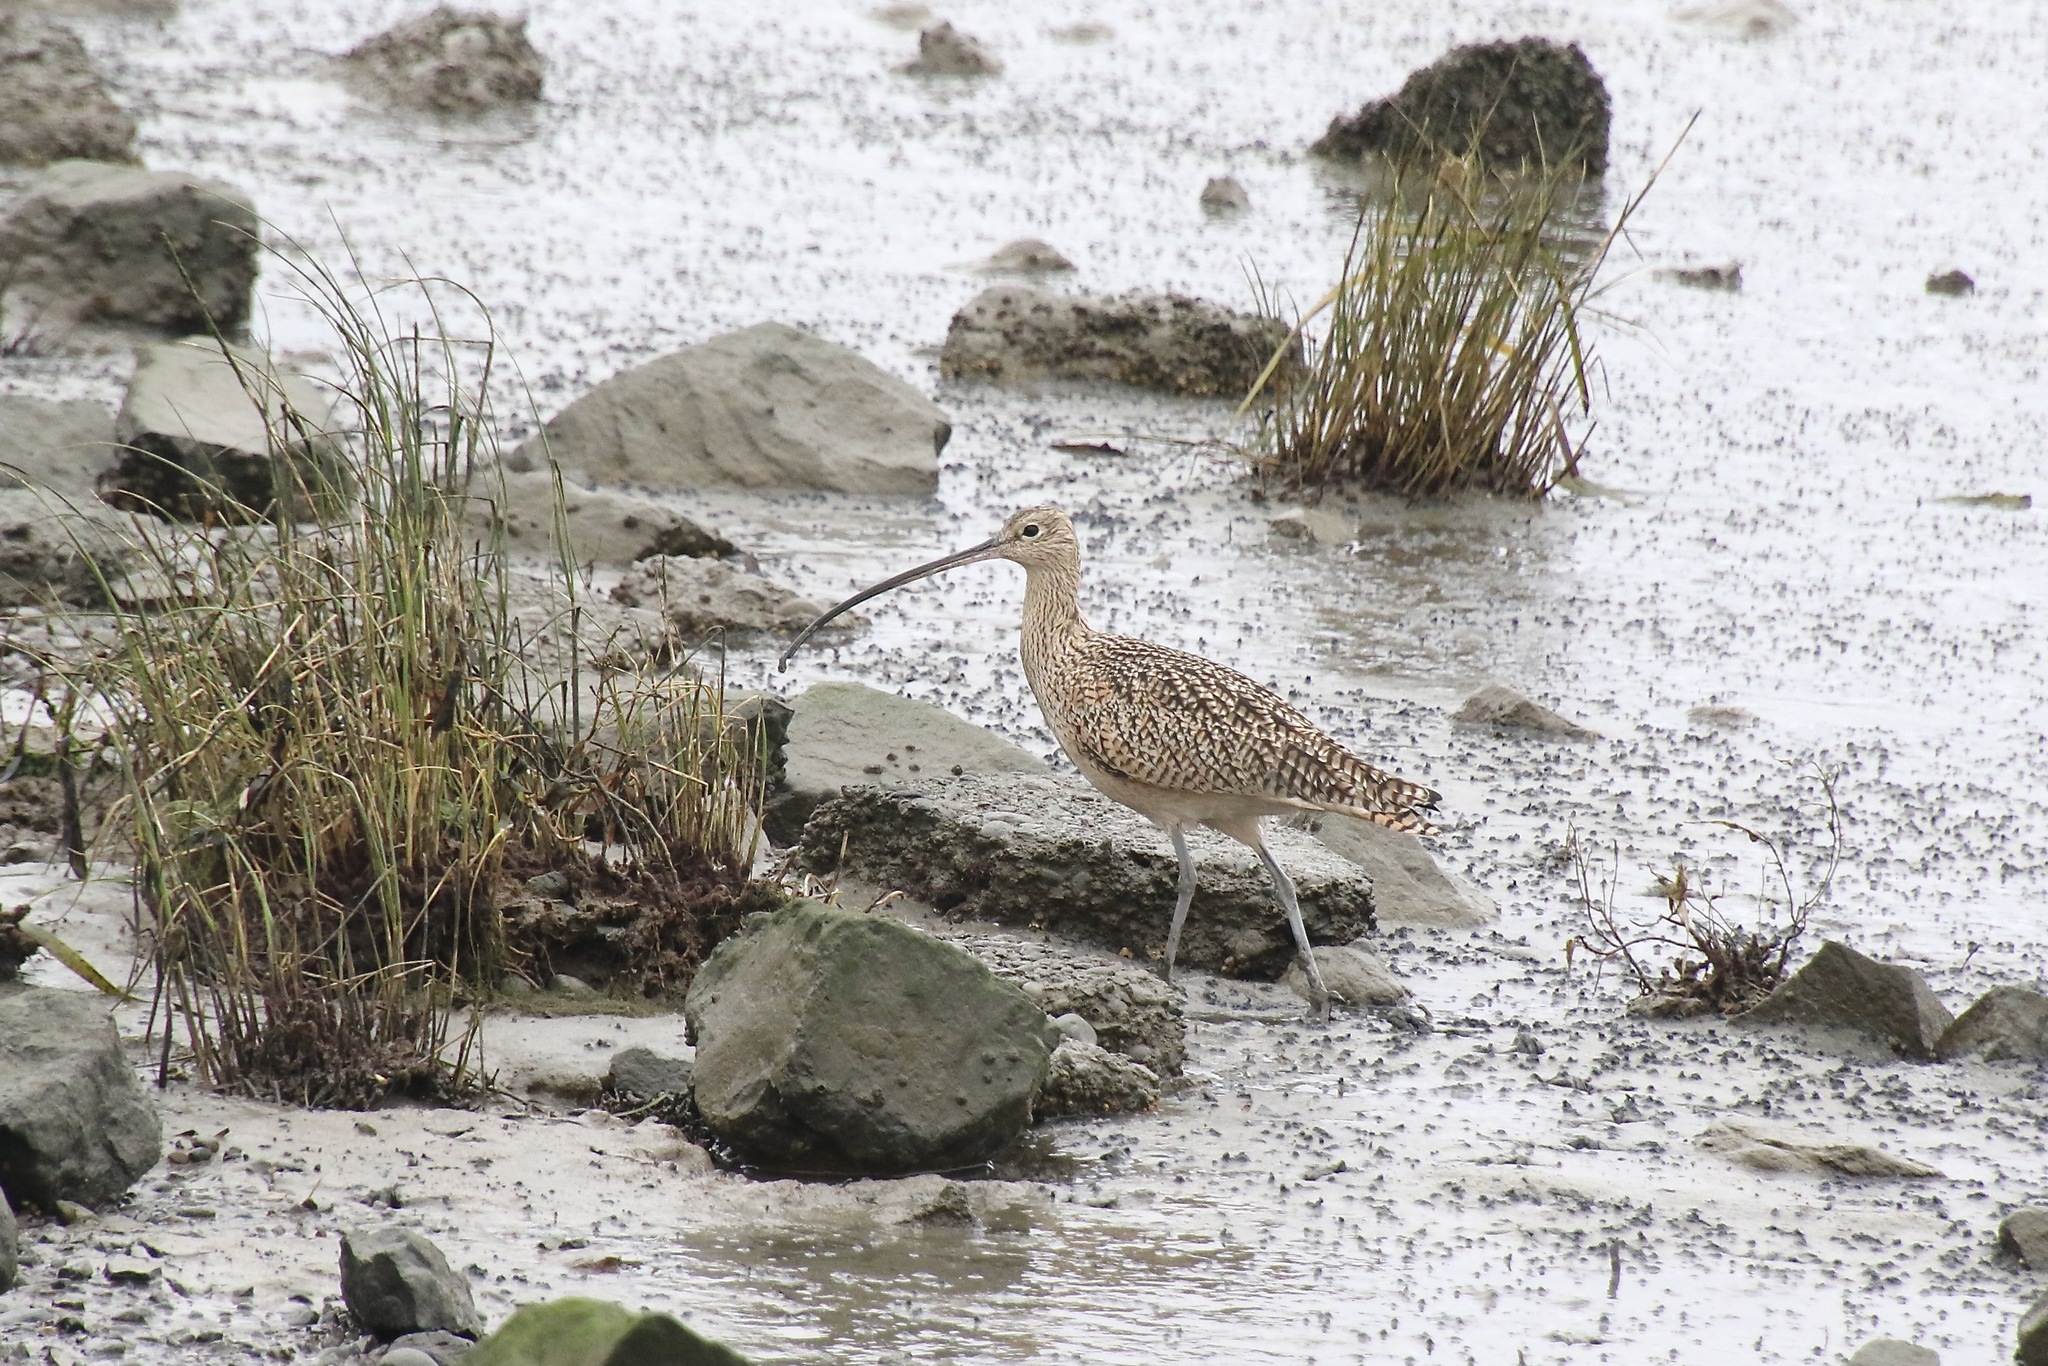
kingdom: Animalia
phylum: Chordata
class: Aves
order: Charadriiformes
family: Scolopacidae
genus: Numenius
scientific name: Numenius americanus
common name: Long-billed curlew
